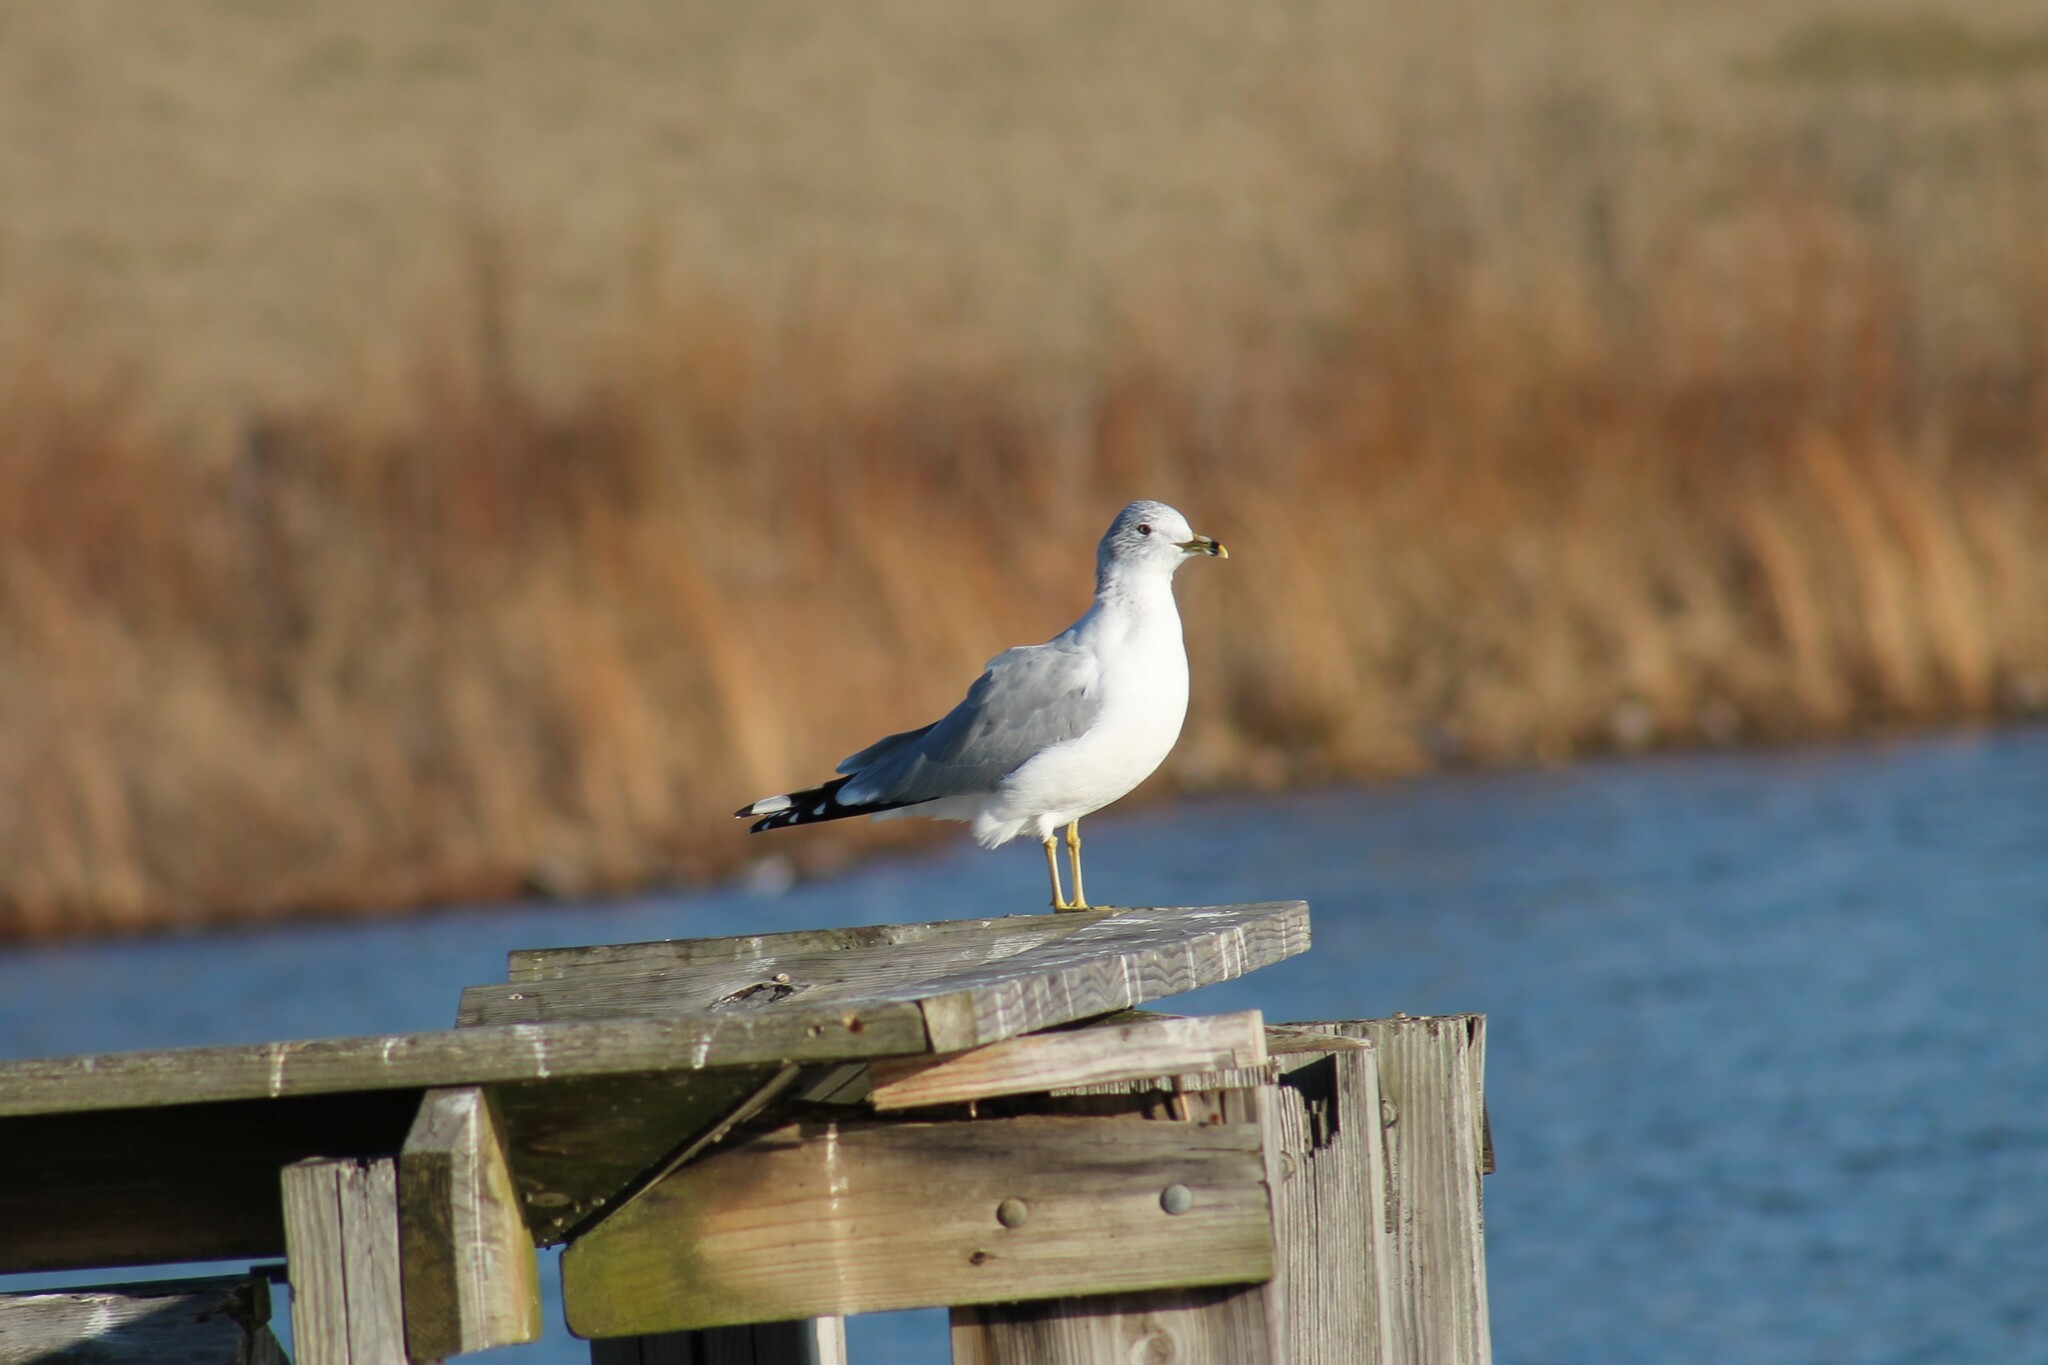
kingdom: Animalia
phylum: Chordata
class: Aves
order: Charadriiformes
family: Laridae
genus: Larus
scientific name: Larus delawarensis
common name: Ring-billed gull
